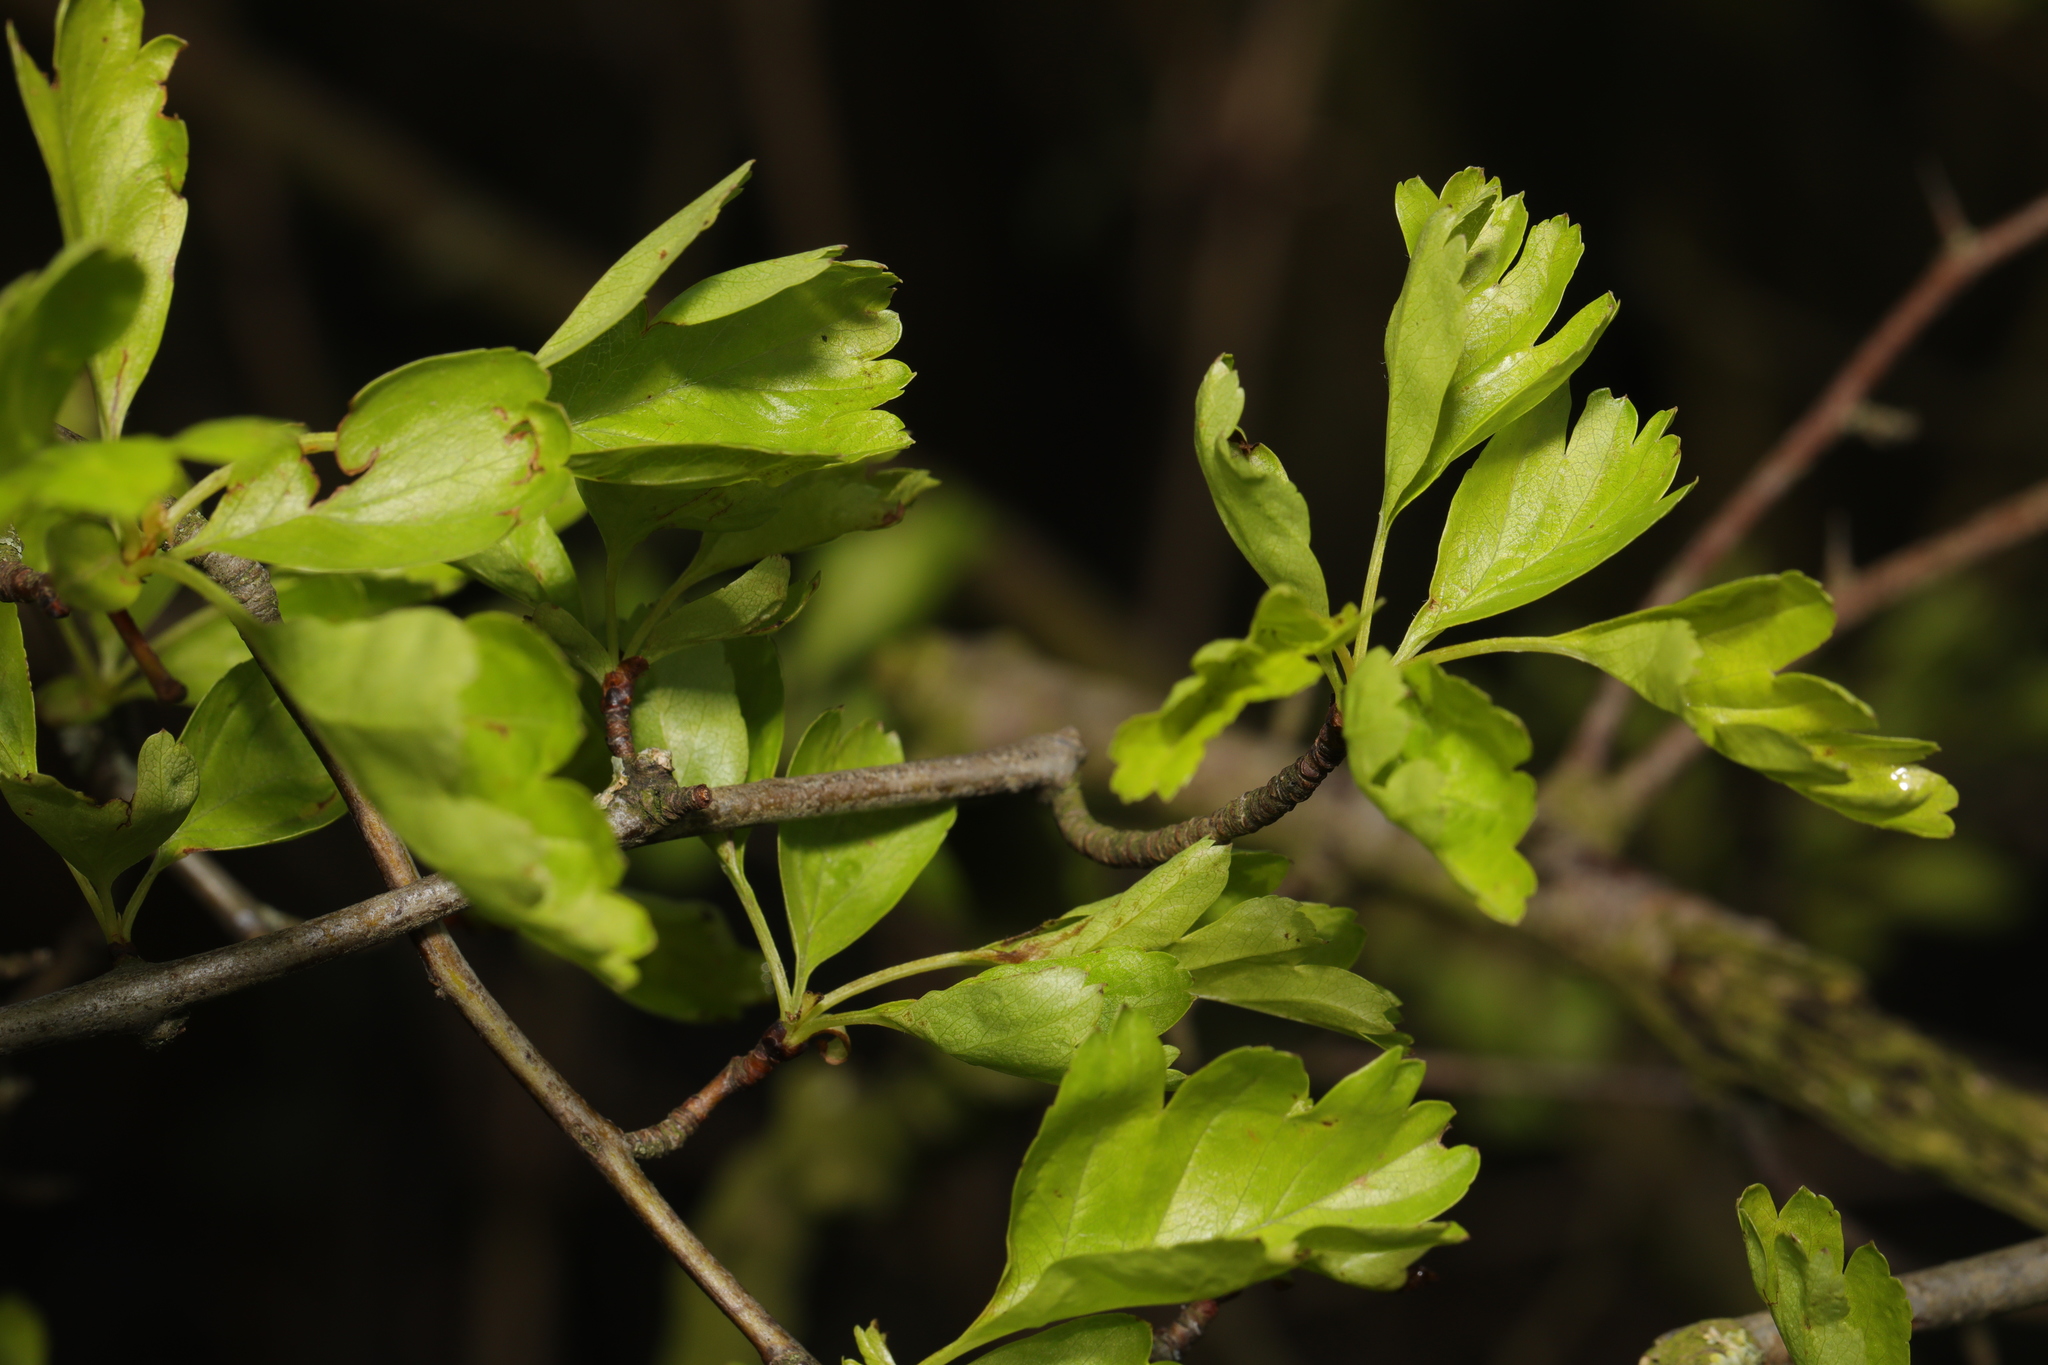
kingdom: Plantae
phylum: Tracheophyta
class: Magnoliopsida
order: Rosales
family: Rosaceae
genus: Crataegus
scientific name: Crataegus monogyna
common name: Hawthorn
